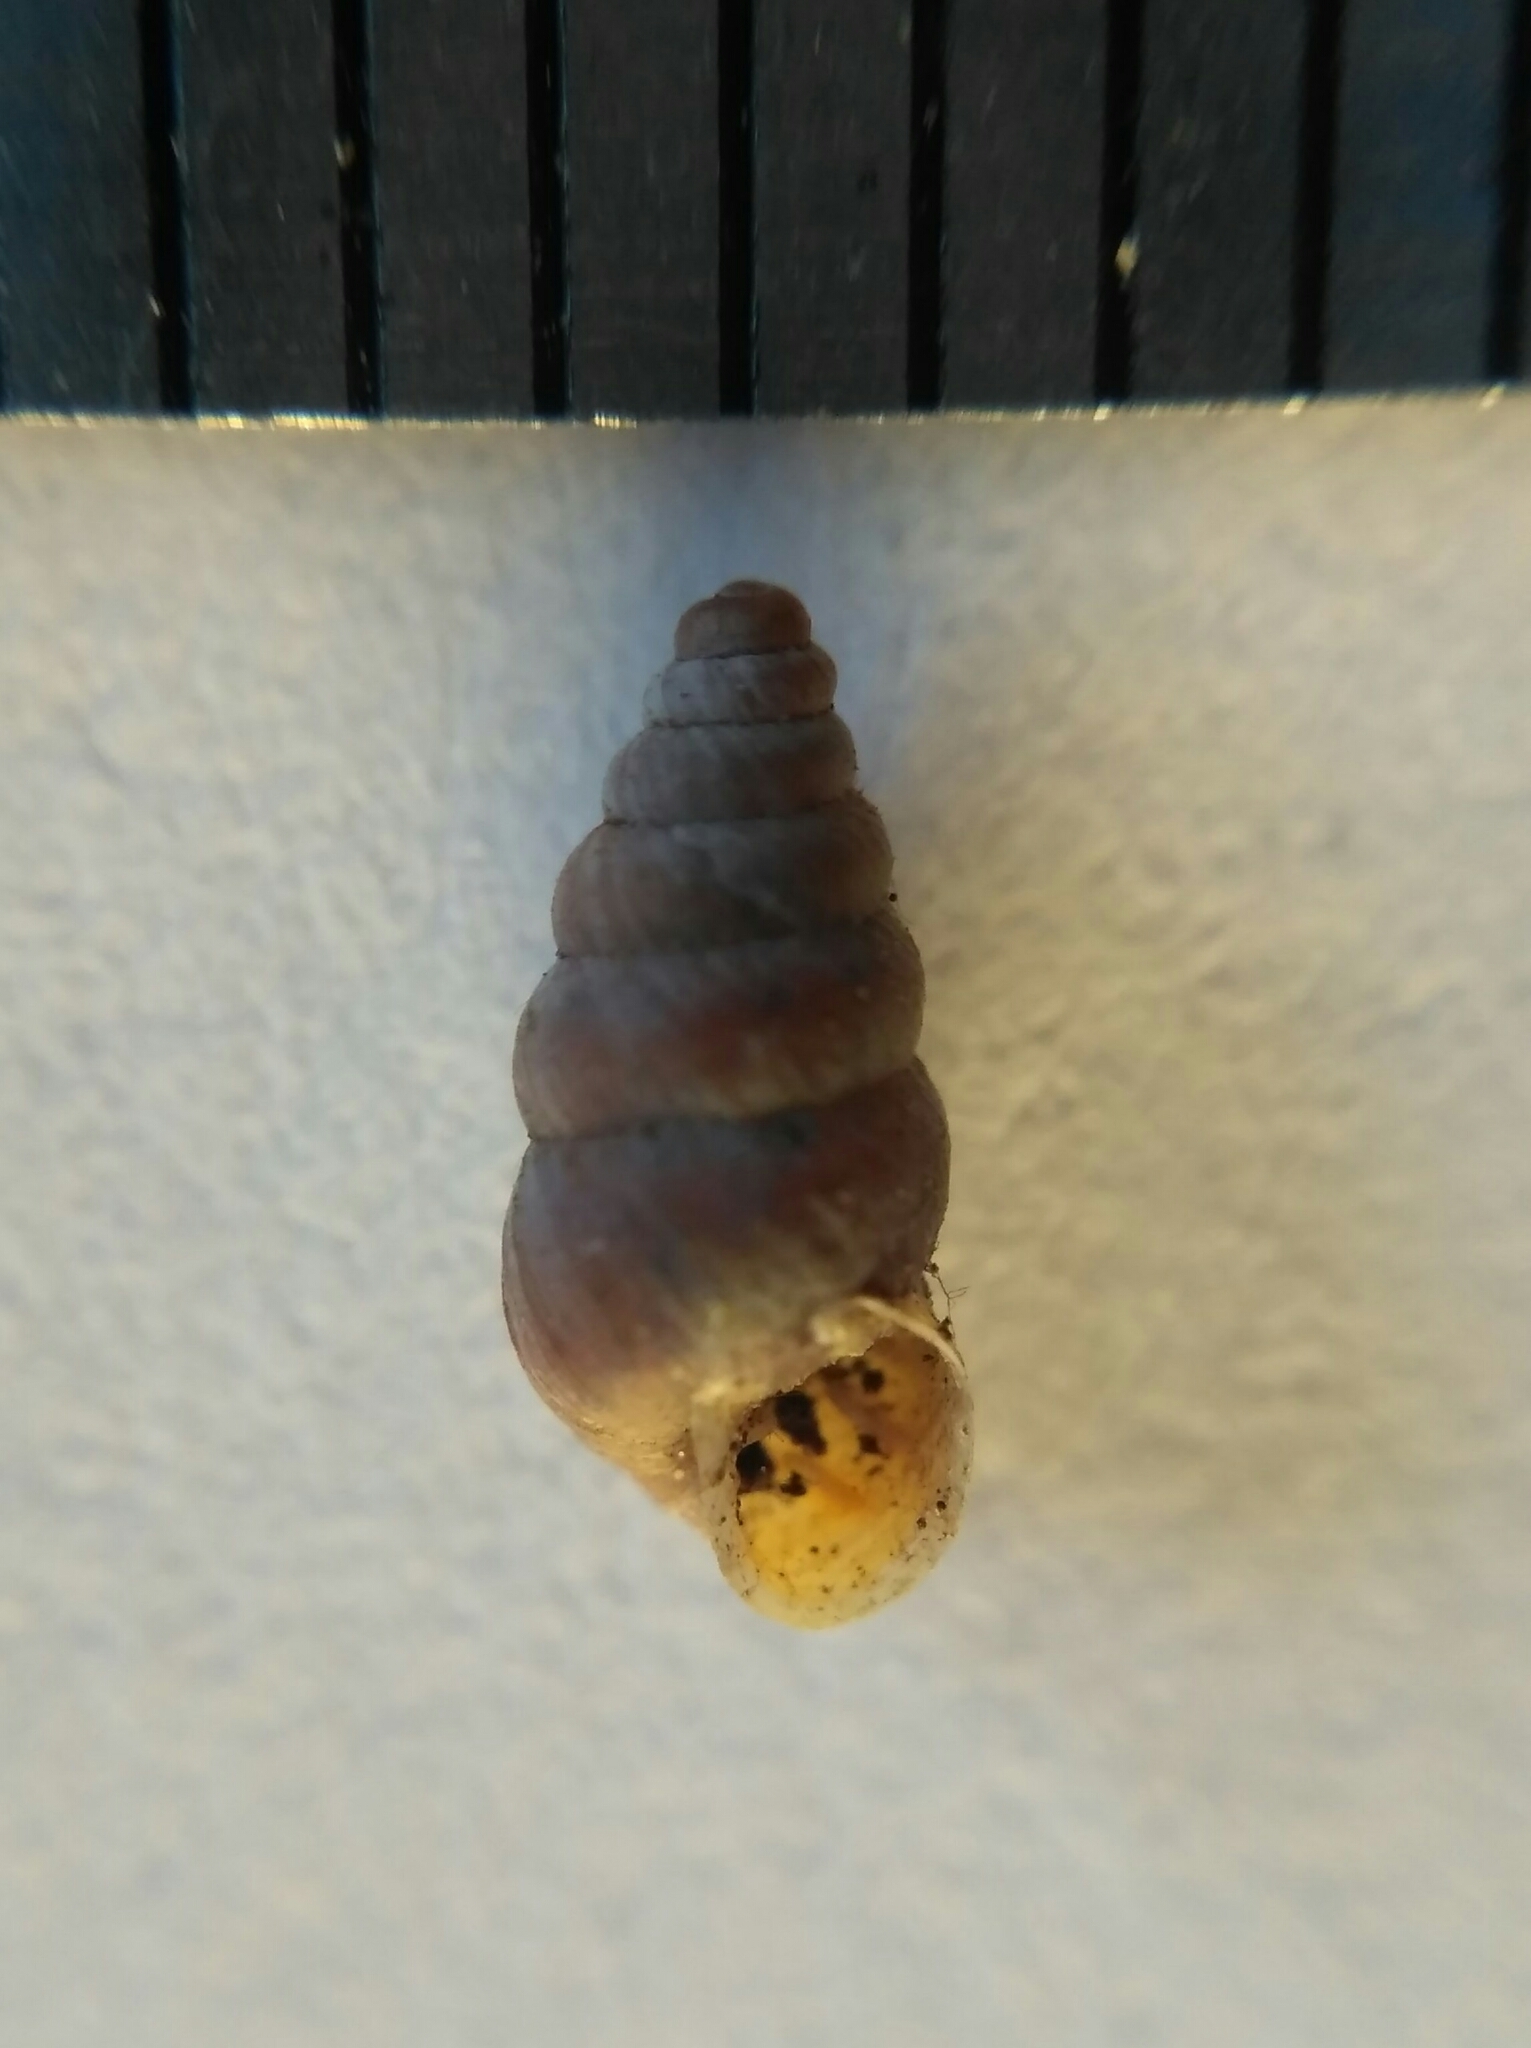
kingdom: Animalia
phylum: Mollusca
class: Gastropoda
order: Stylommatophora
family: Chondrinidae
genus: Chondrina
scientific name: Chondrina arcadica
